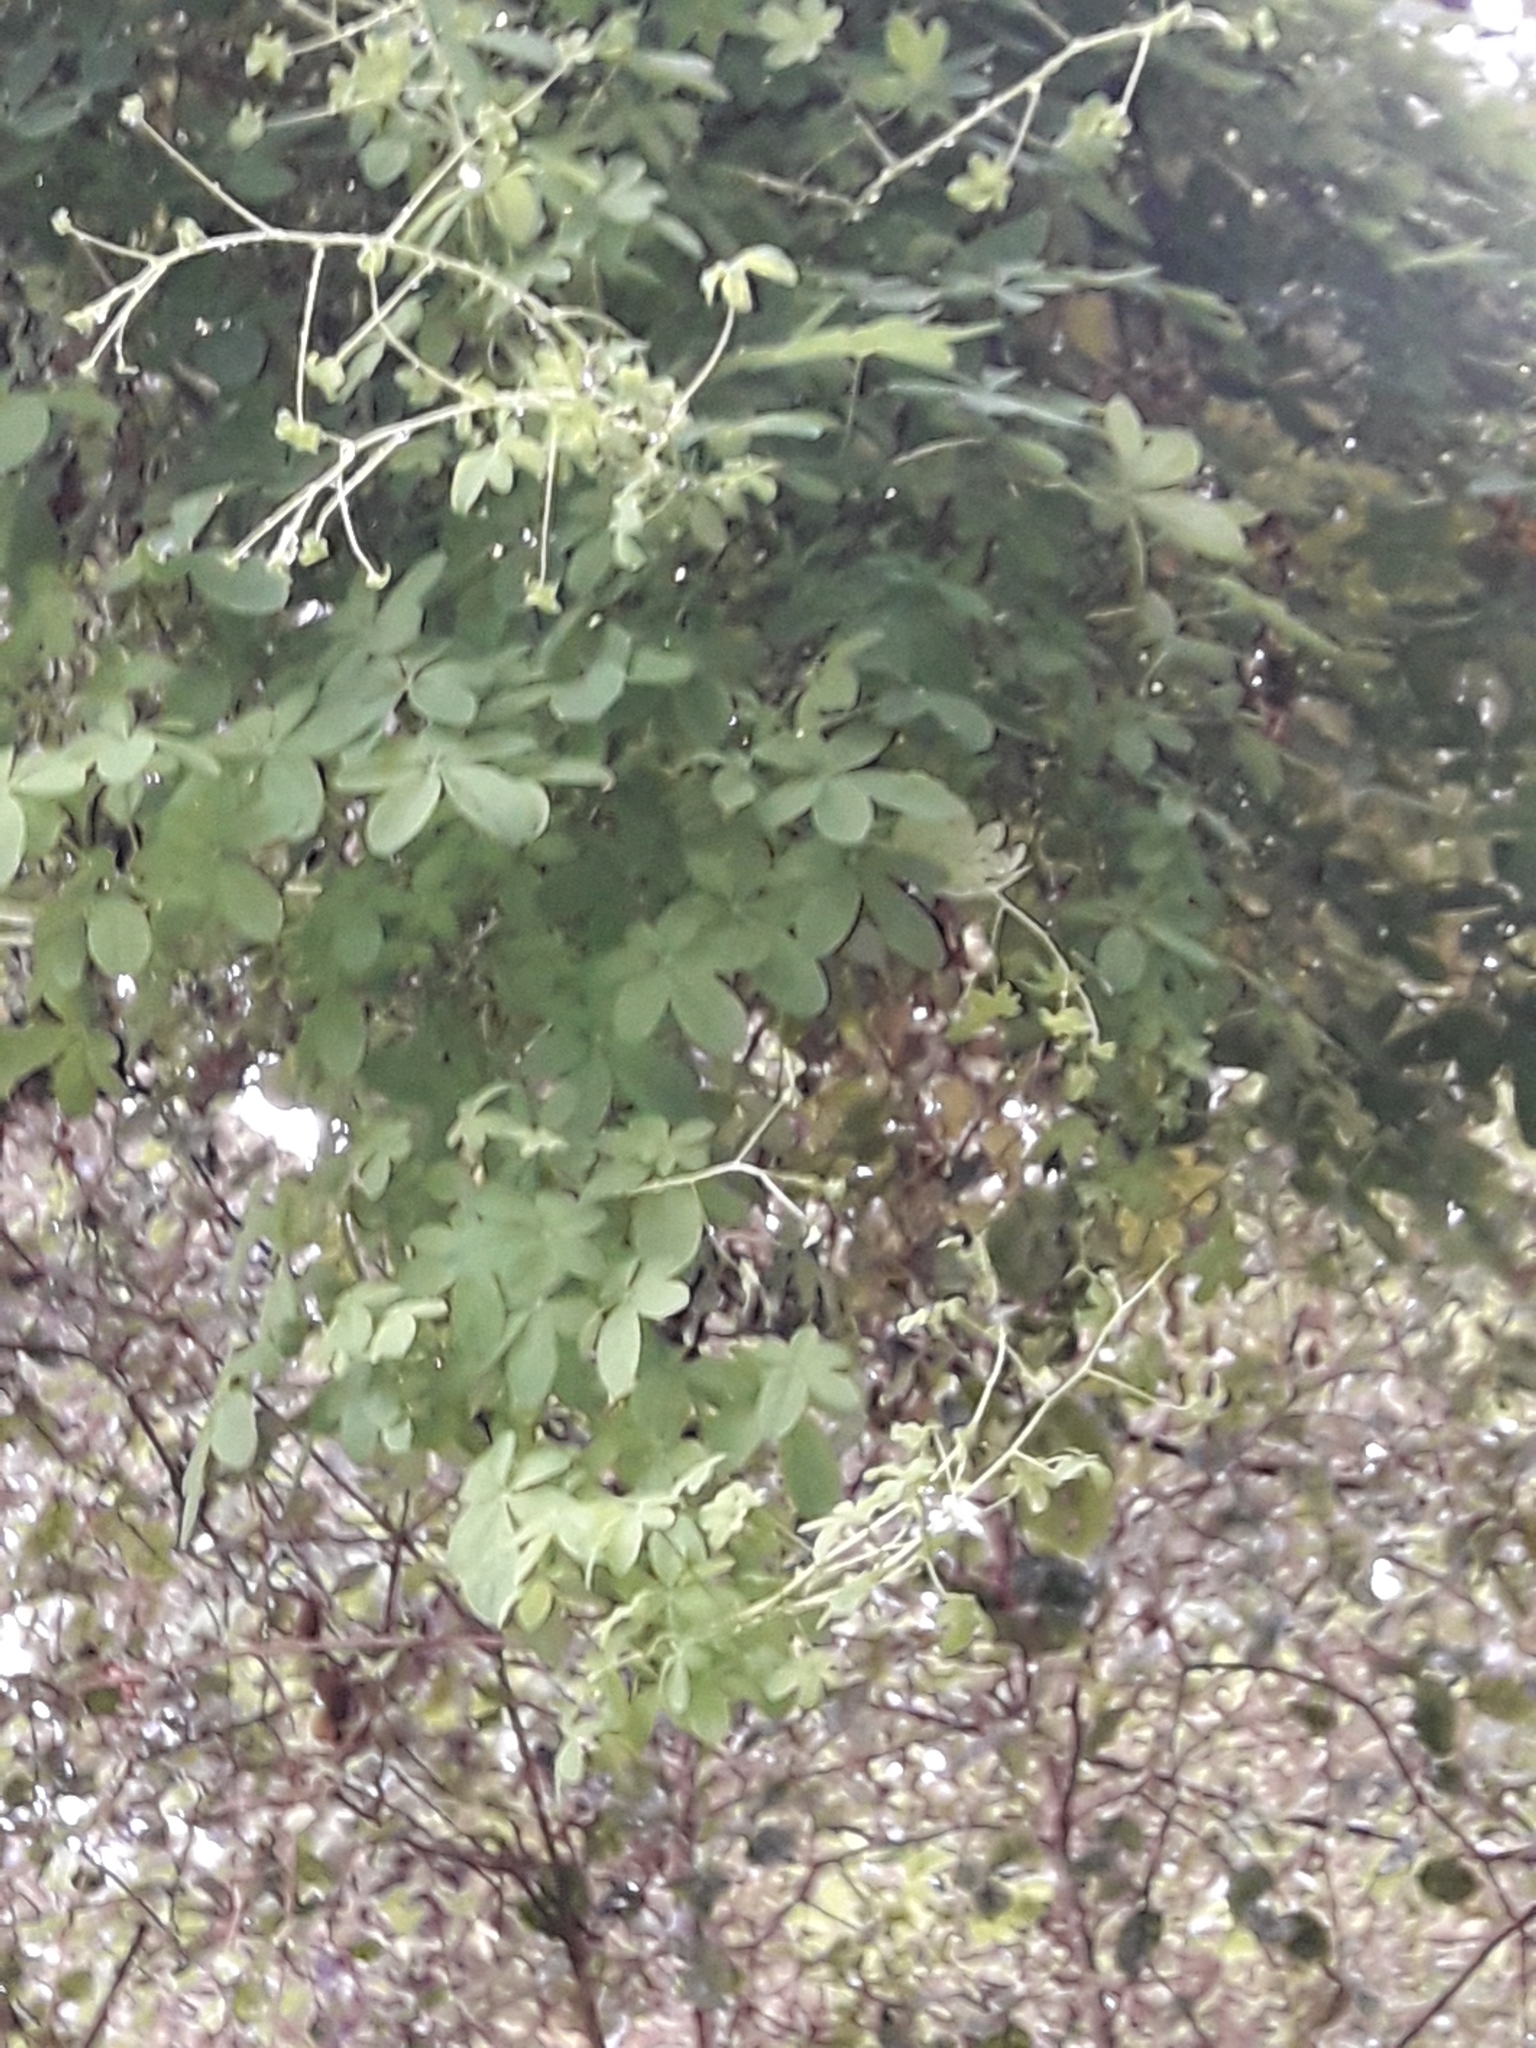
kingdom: Plantae
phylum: Tracheophyta
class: Magnoliopsida
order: Brassicales
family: Tropaeolaceae
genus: Tropaeolum
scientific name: Tropaeolum speciosum
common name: Flame nasturtium
